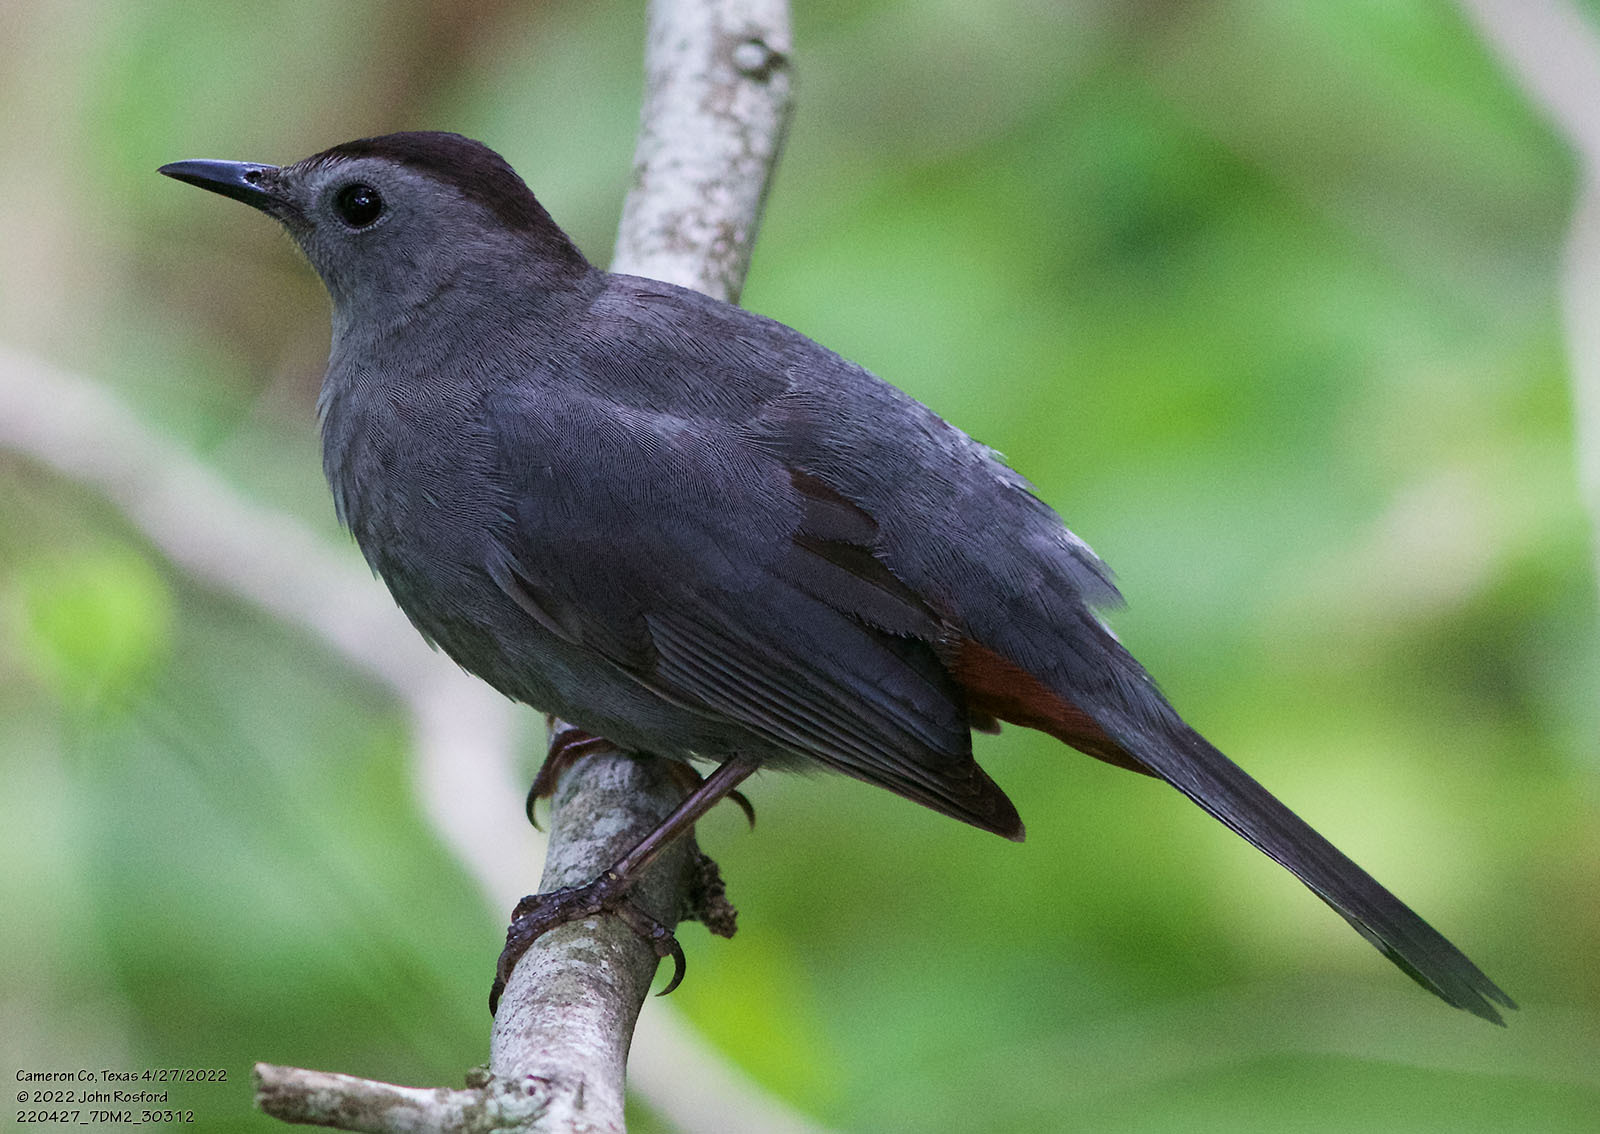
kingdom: Animalia
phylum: Chordata
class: Aves
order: Passeriformes
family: Mimidae
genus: Dumetella
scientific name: Dumetella carolinensis
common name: Gray catbird
